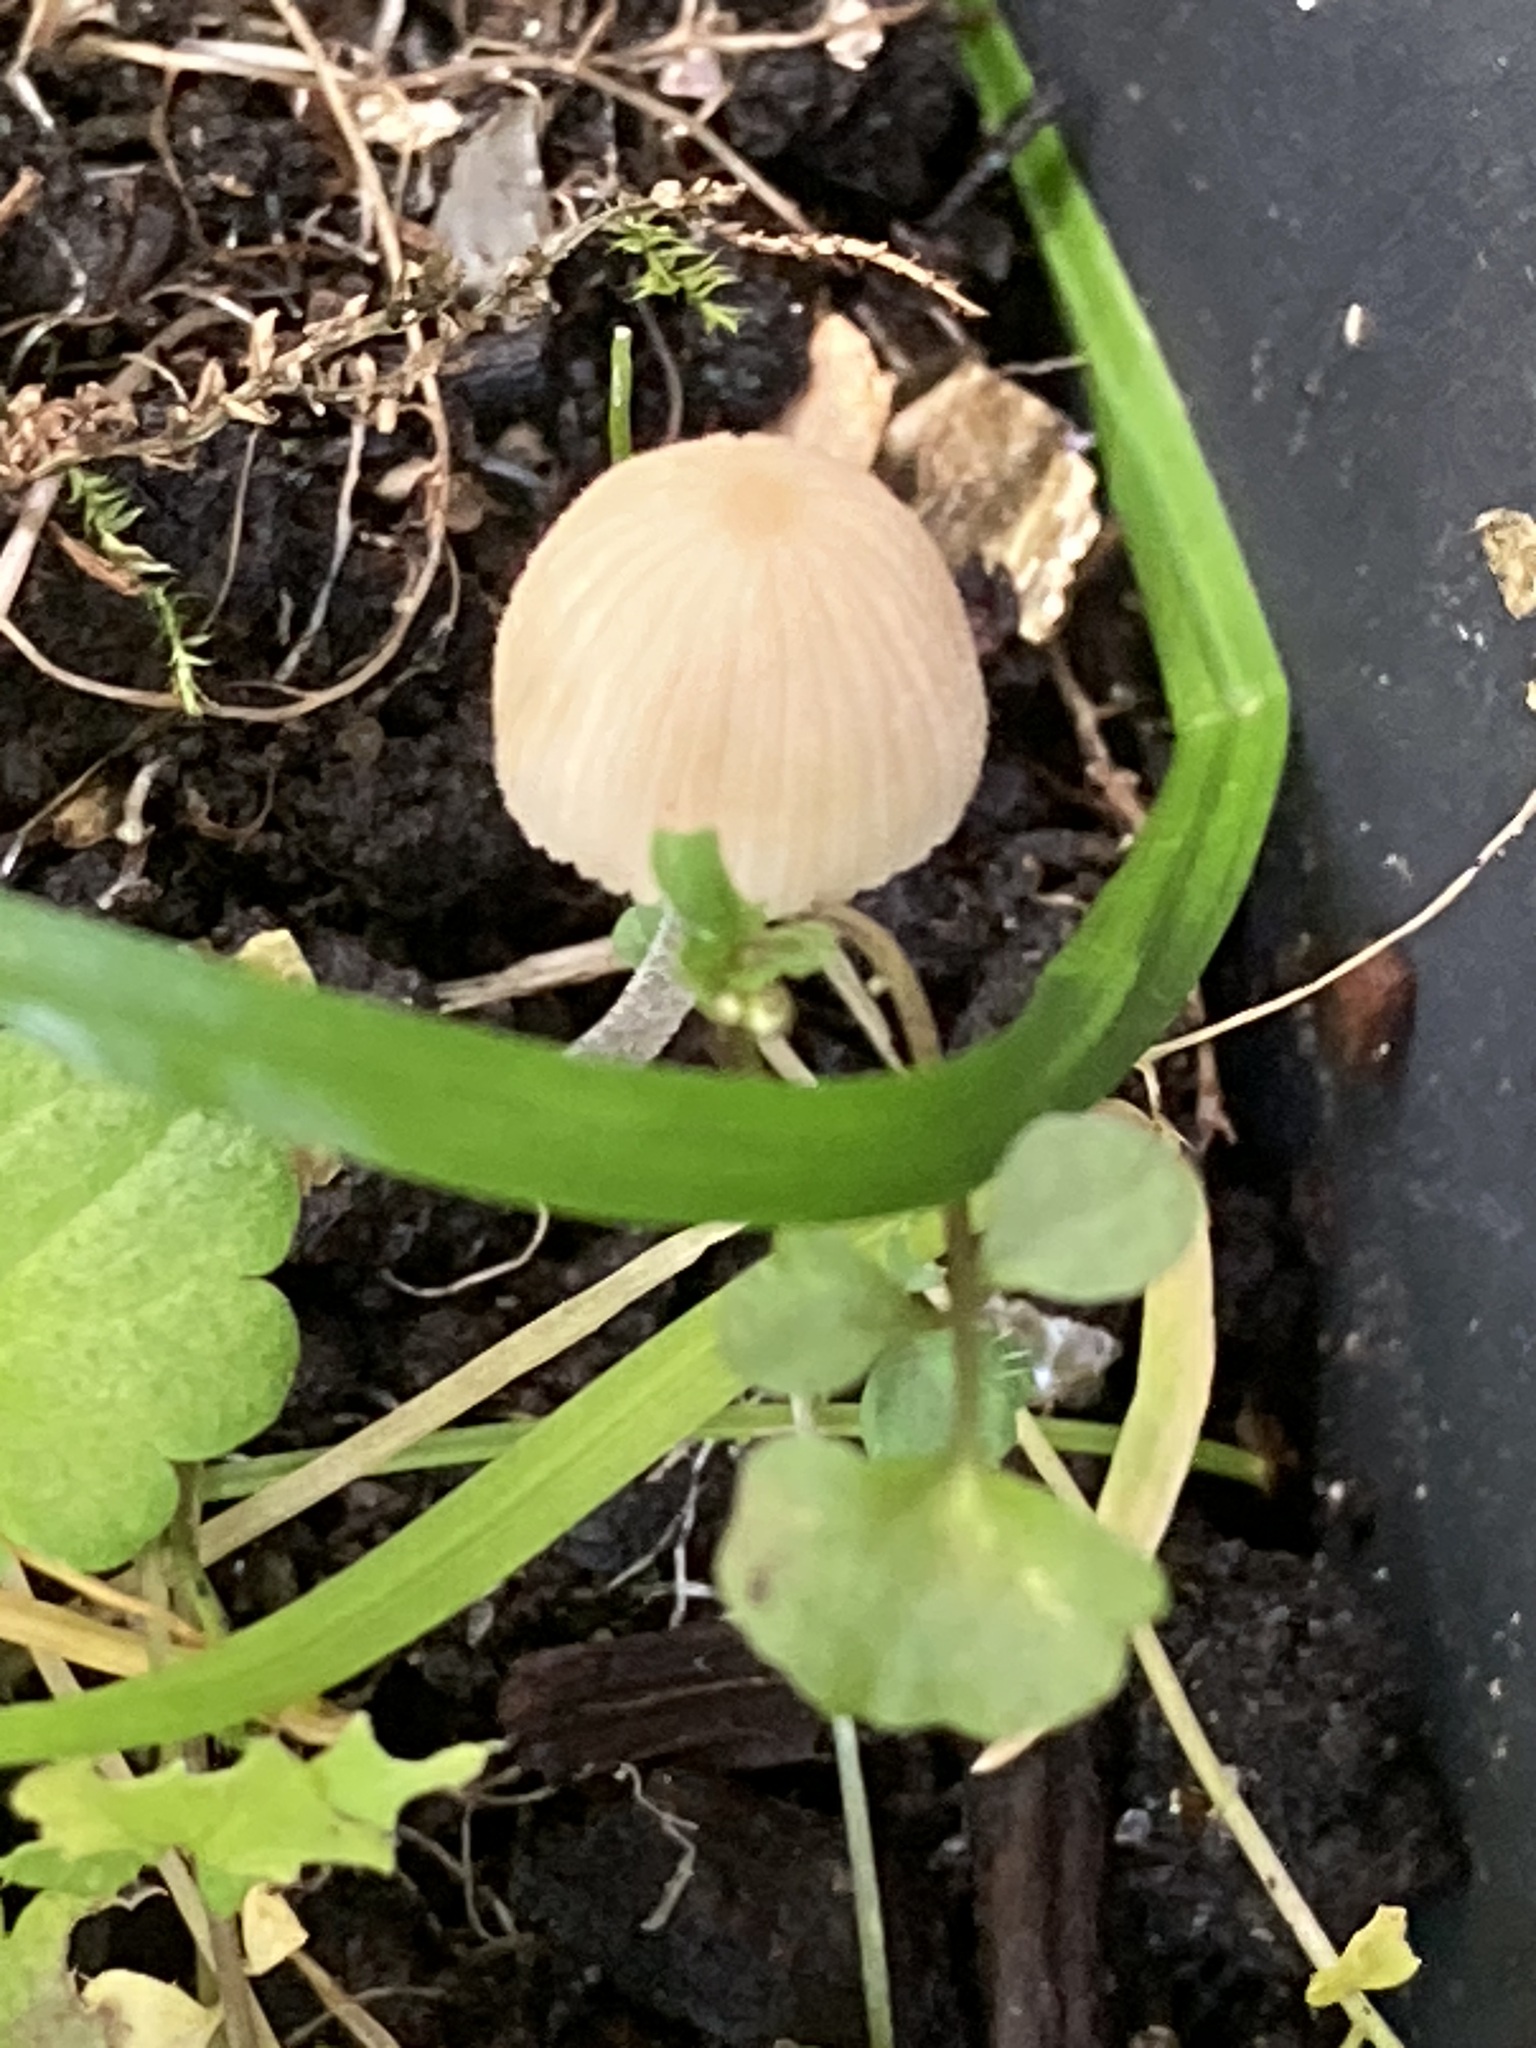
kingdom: Fungi
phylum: Basidiomycota
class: Agaricomycetes
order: Agaricales
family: Psathyrellaceae
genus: Coprinellus
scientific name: Coprinellus disseminatus
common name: Fairies' bonnets
